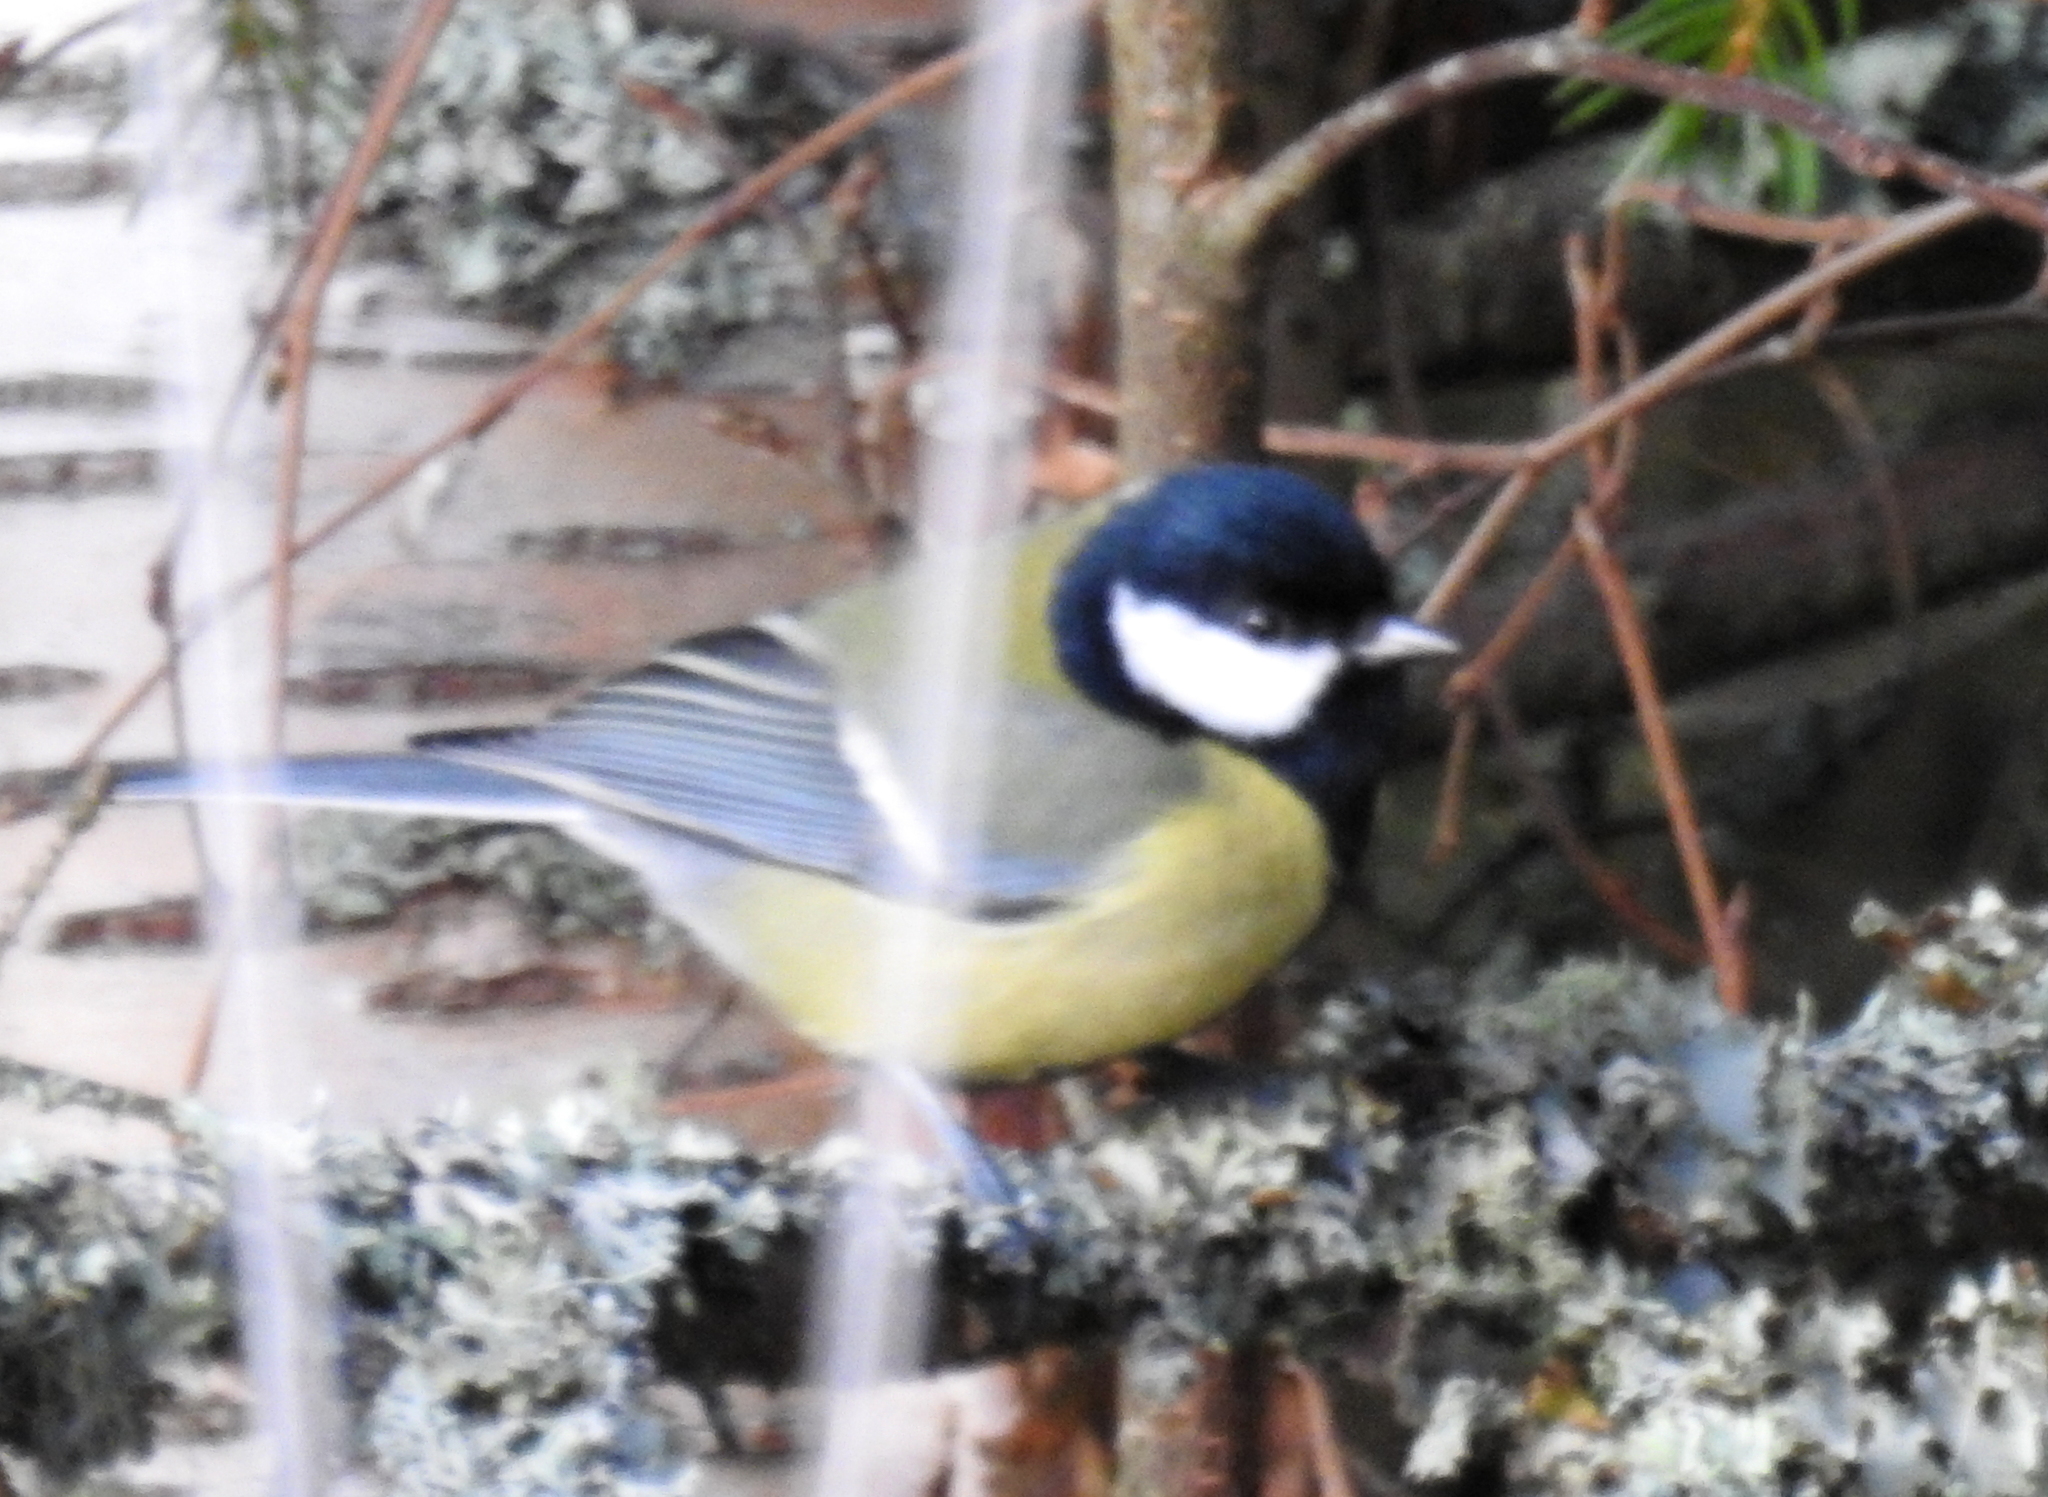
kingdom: Animalia
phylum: Chordata
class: Aves
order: Passeriformes
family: Paridae
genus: Parus
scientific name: Parus major
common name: Great tit
